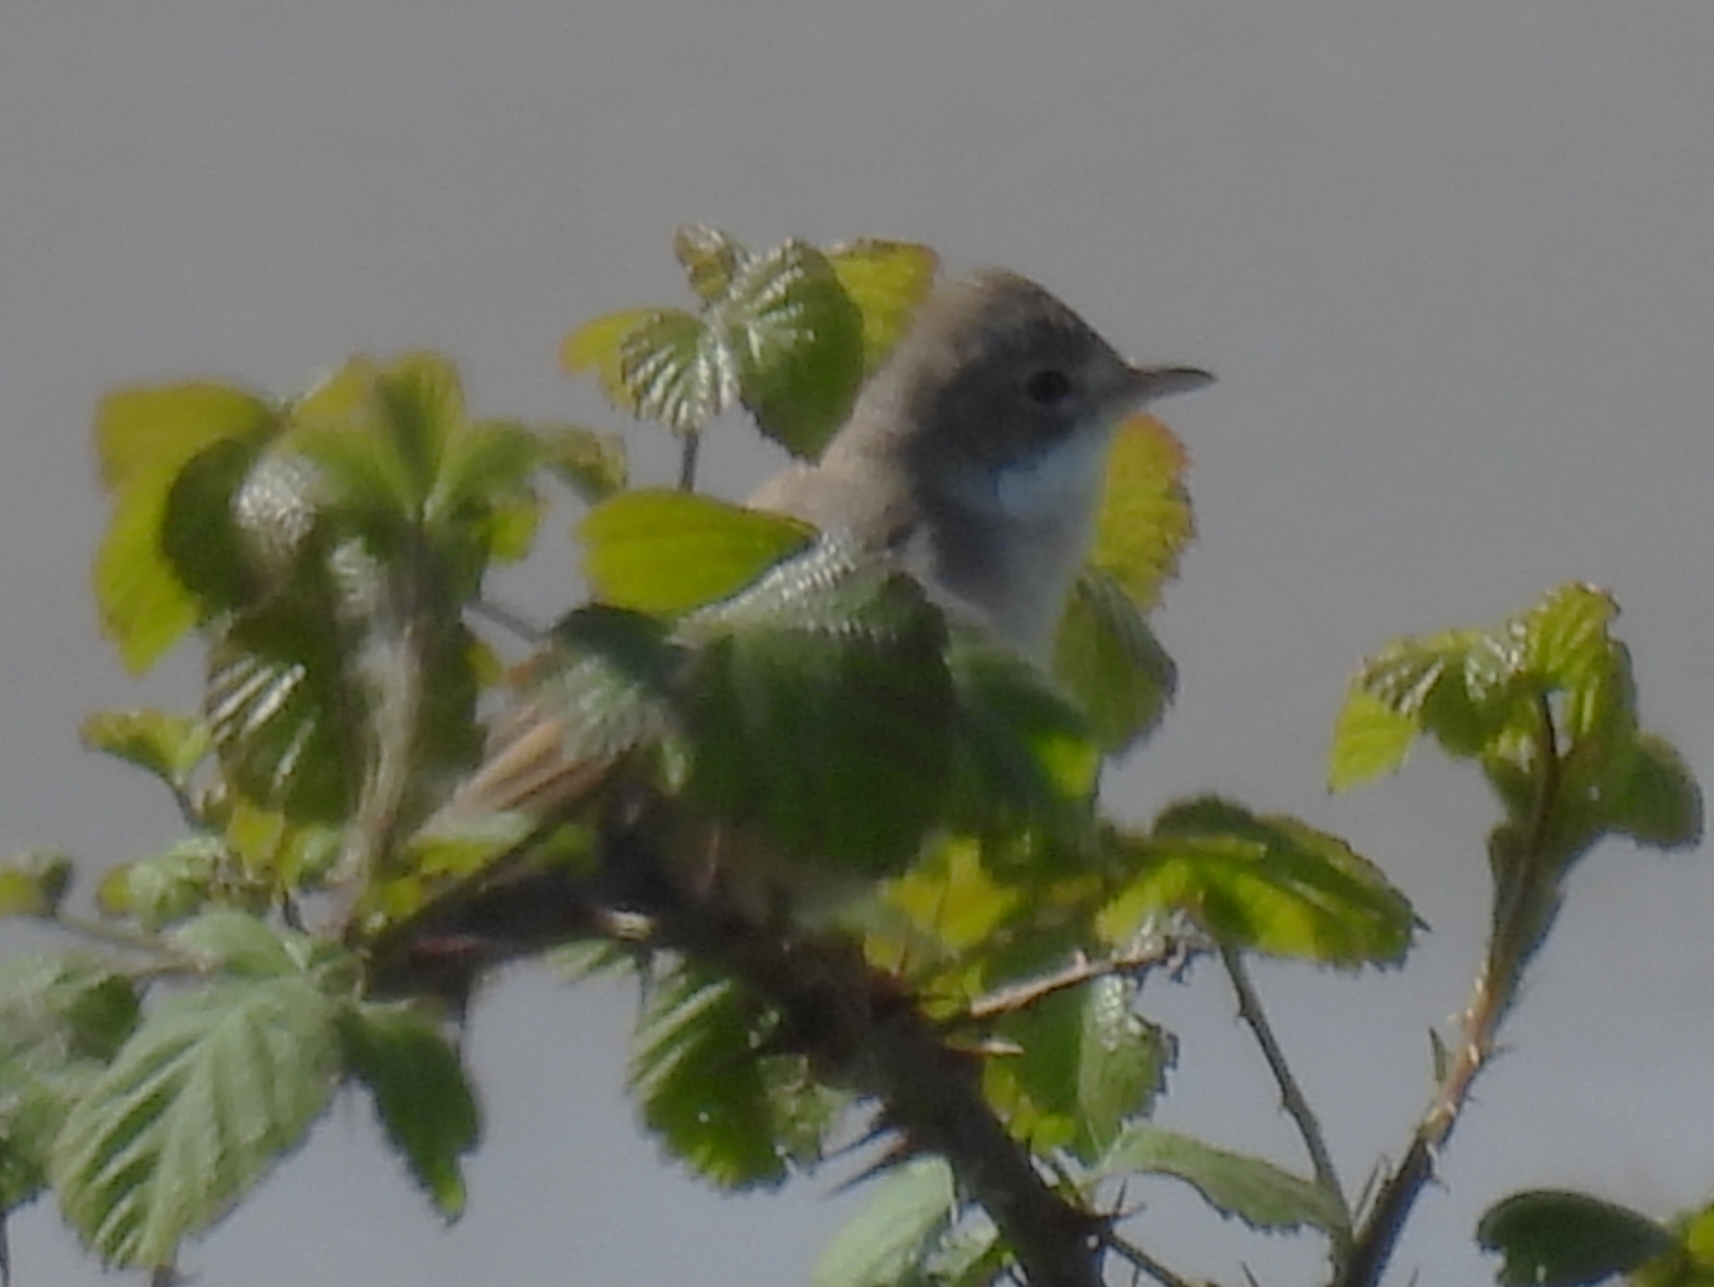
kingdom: Animalia
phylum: Chordata
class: Aves
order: Passeriformes
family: Sylviidae
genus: Sylvia
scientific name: Sylvia communis
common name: Common whitethroat
